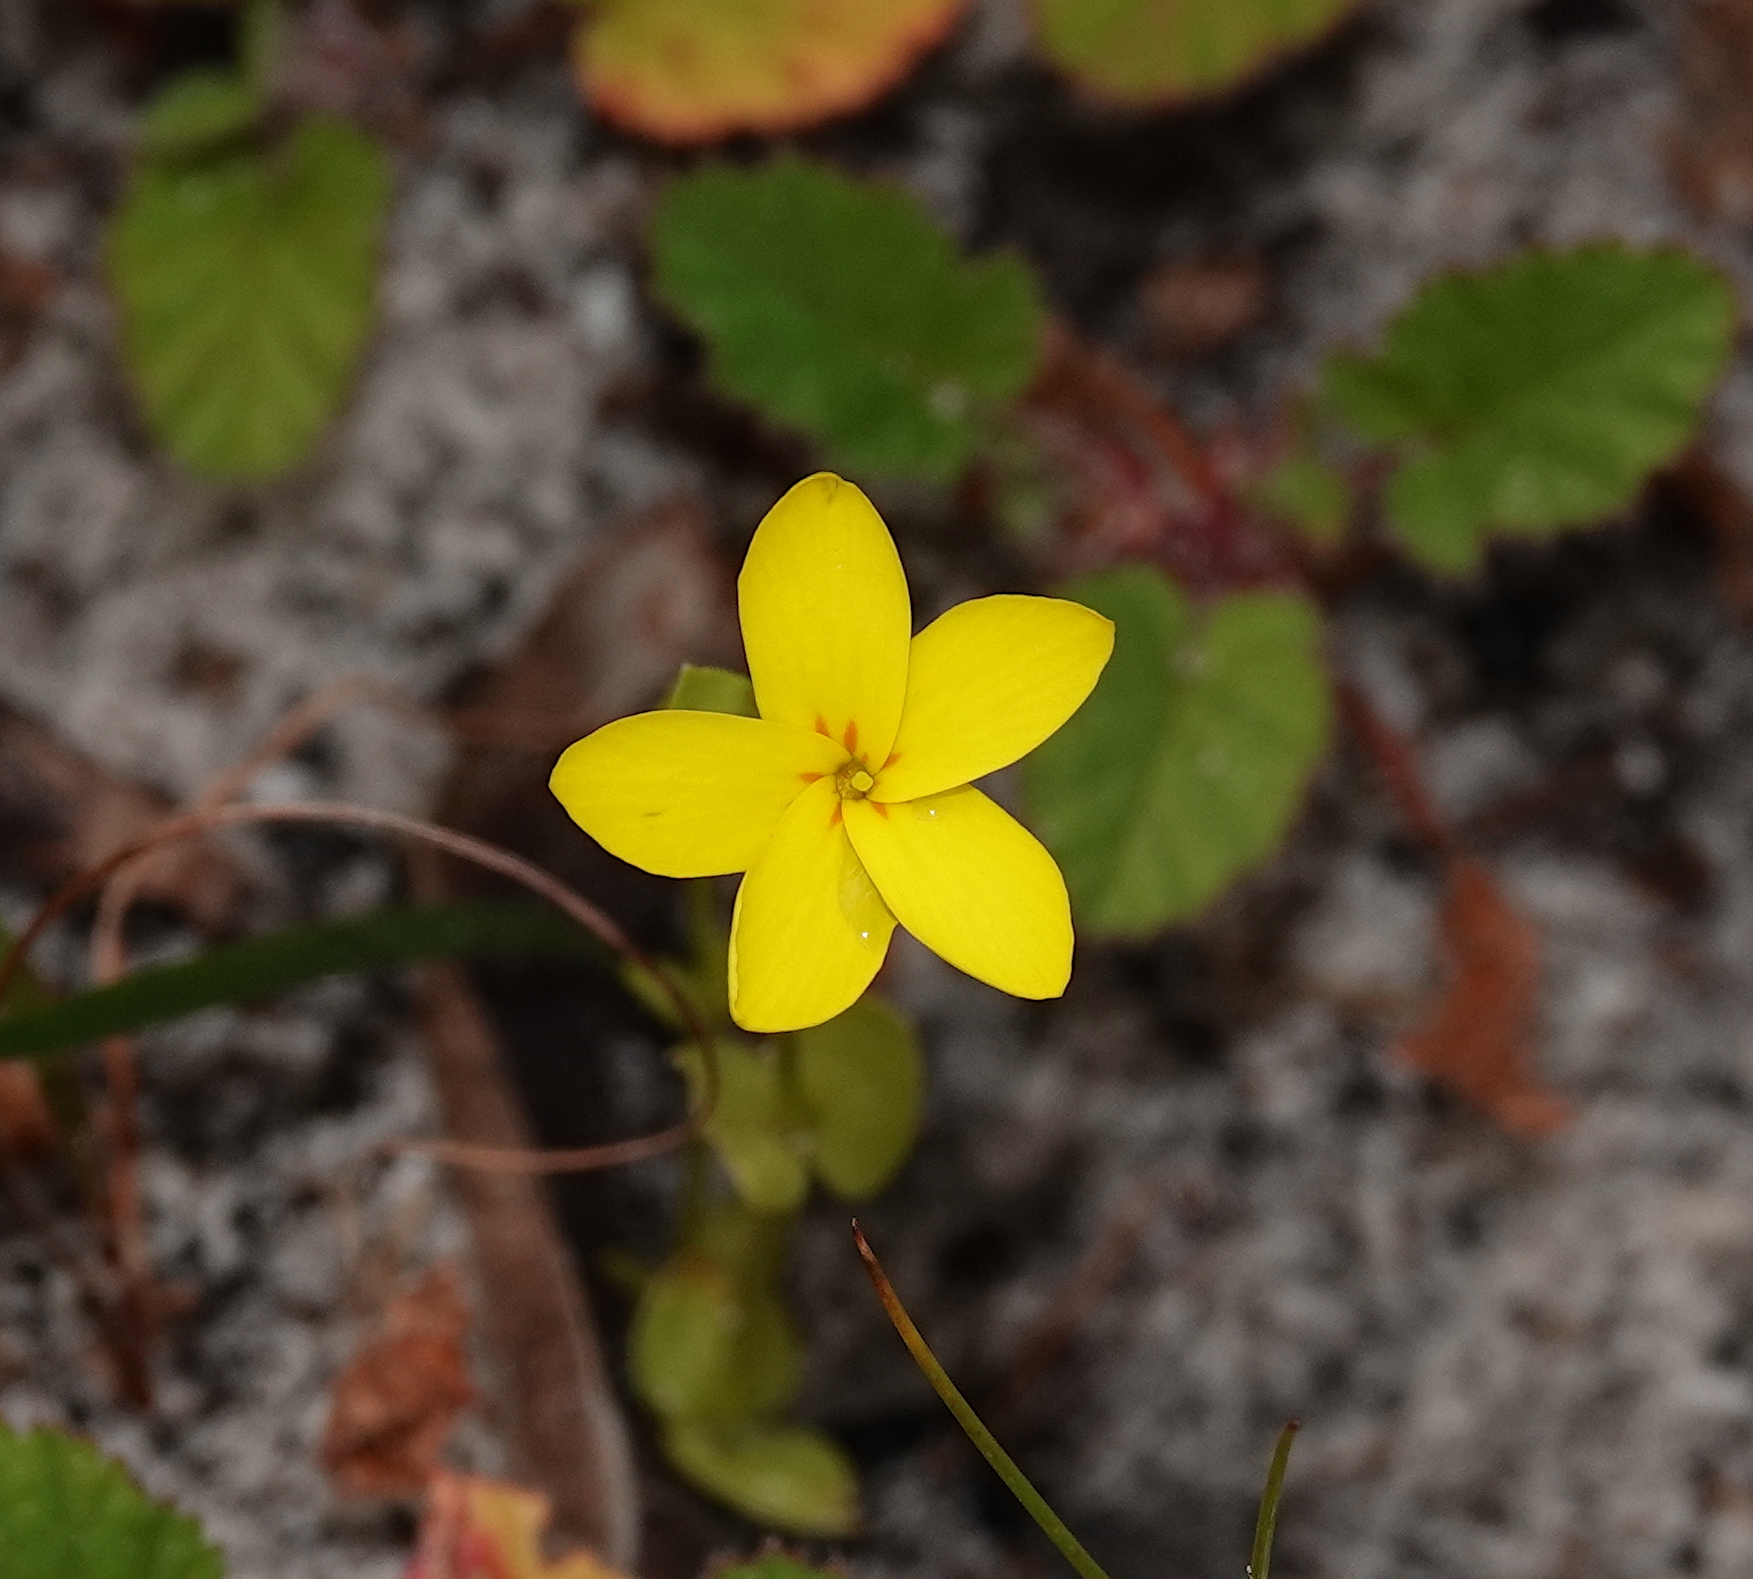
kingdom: Plantae
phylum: Tracheophyta
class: Magnoliopsida
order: Gentianales
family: Gentianaceae
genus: Sebaea
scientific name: Sebaea exacoides
